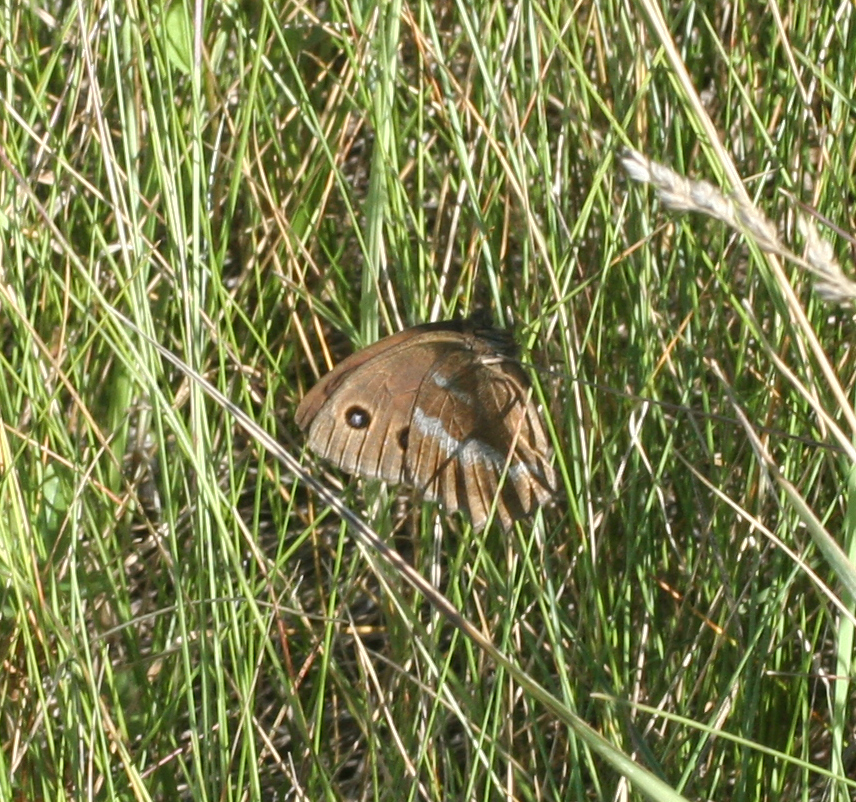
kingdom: Animalia
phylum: Arthropoda
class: Insecta
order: Lepidoptera
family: Nymphalidae
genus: Minois
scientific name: Minois dryas
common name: Dryad
